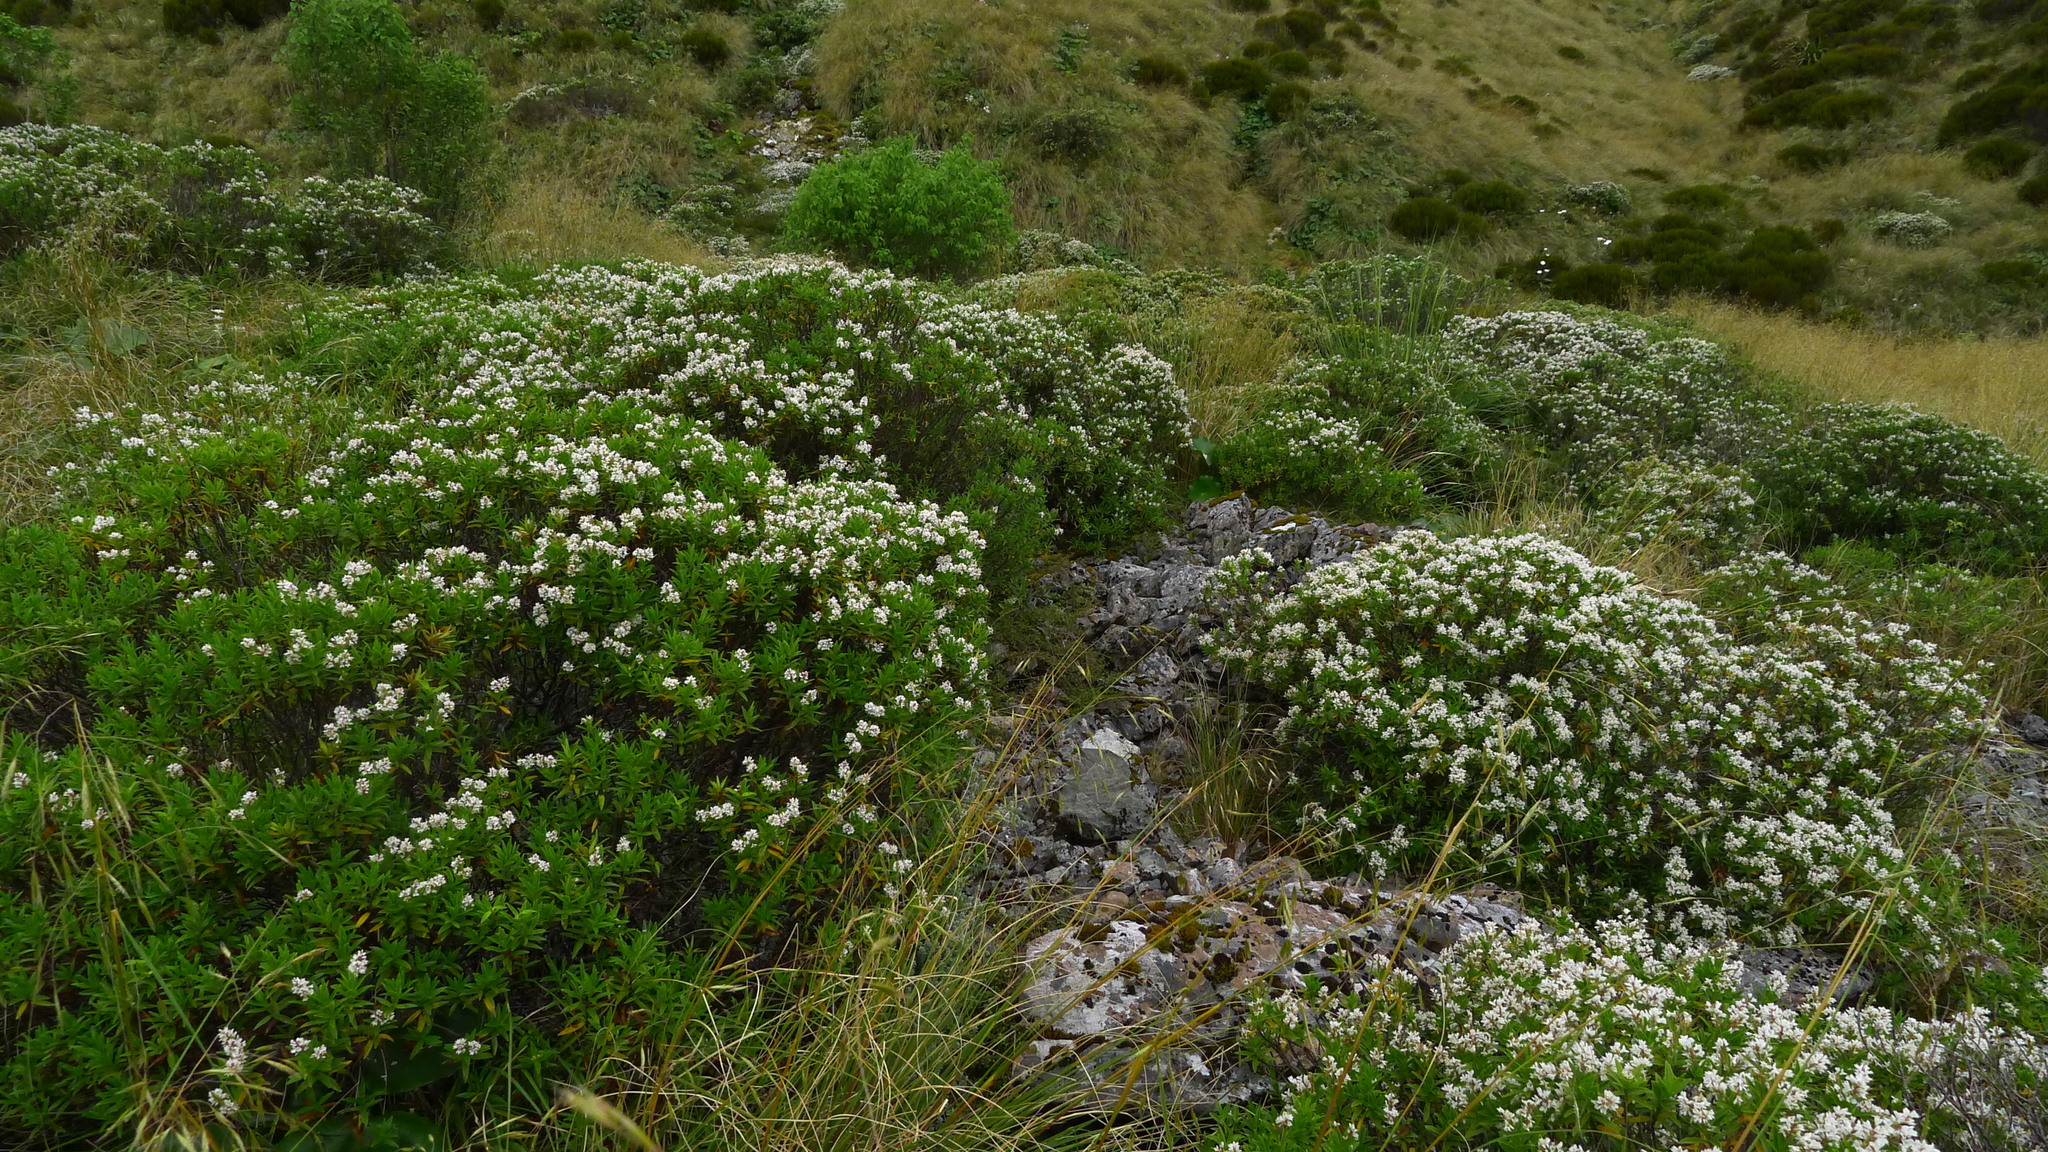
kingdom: Plantae
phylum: Tracheophyta
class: Magnoliopsida
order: Lamiales
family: Plantaginaceae
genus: Veronica
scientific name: Veronica subalpina
